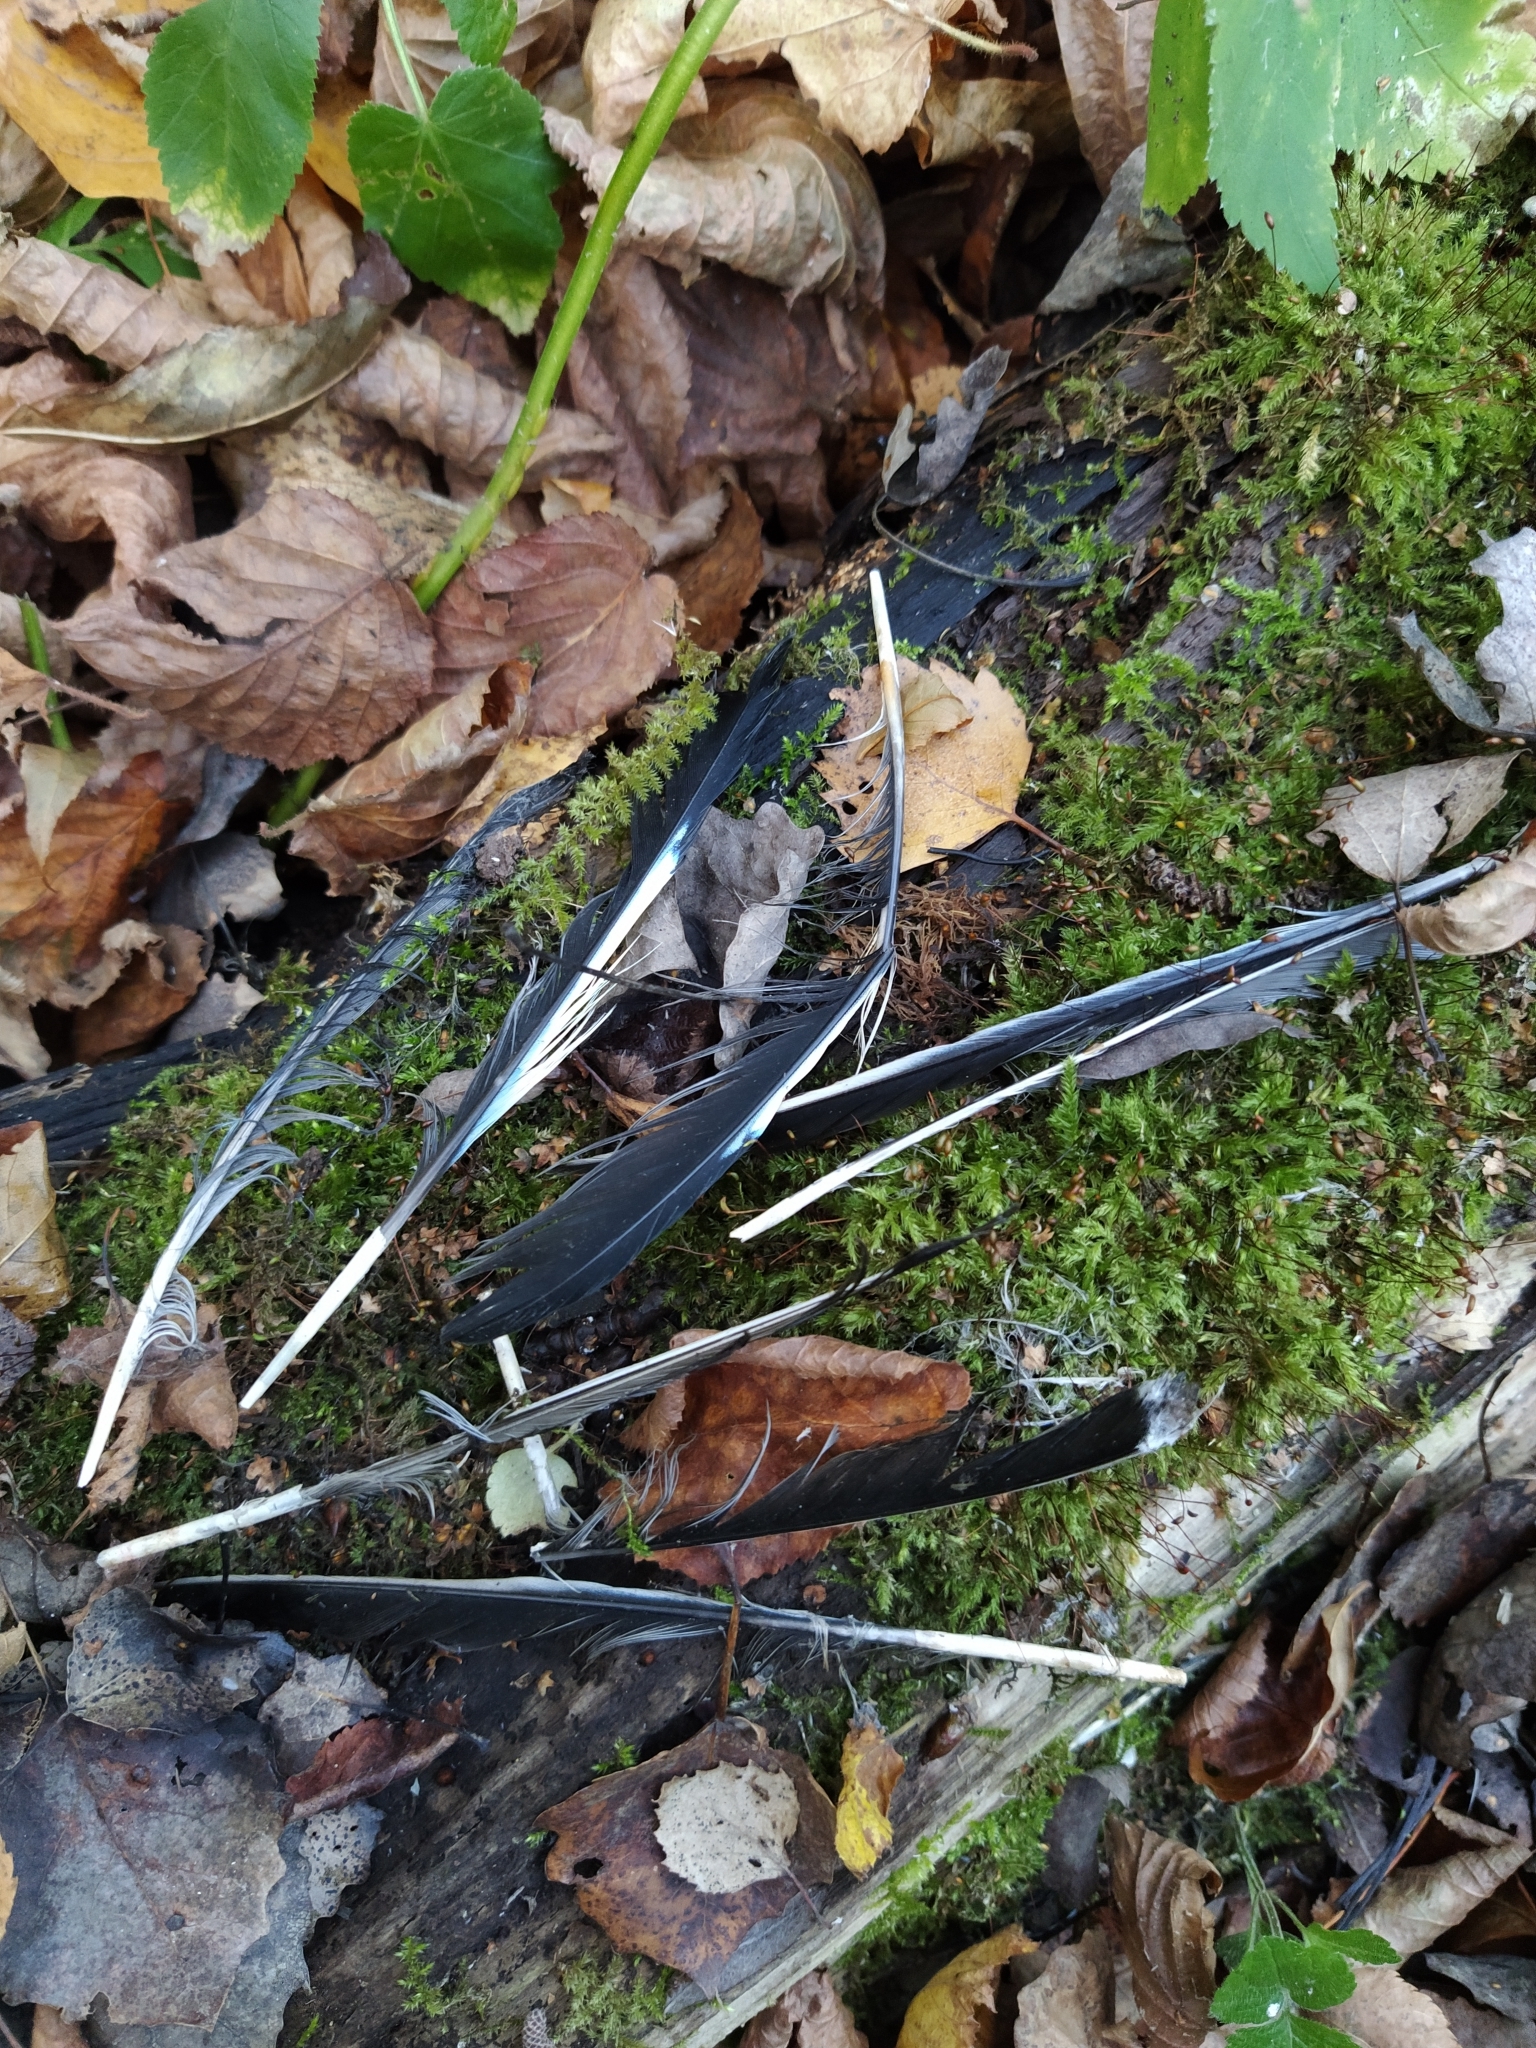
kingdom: Animalia
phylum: Chordata
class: Aves
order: Passeriformes
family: Corvidae
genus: Garrulus
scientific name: Garrulus glandarius
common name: Eurasian jay
